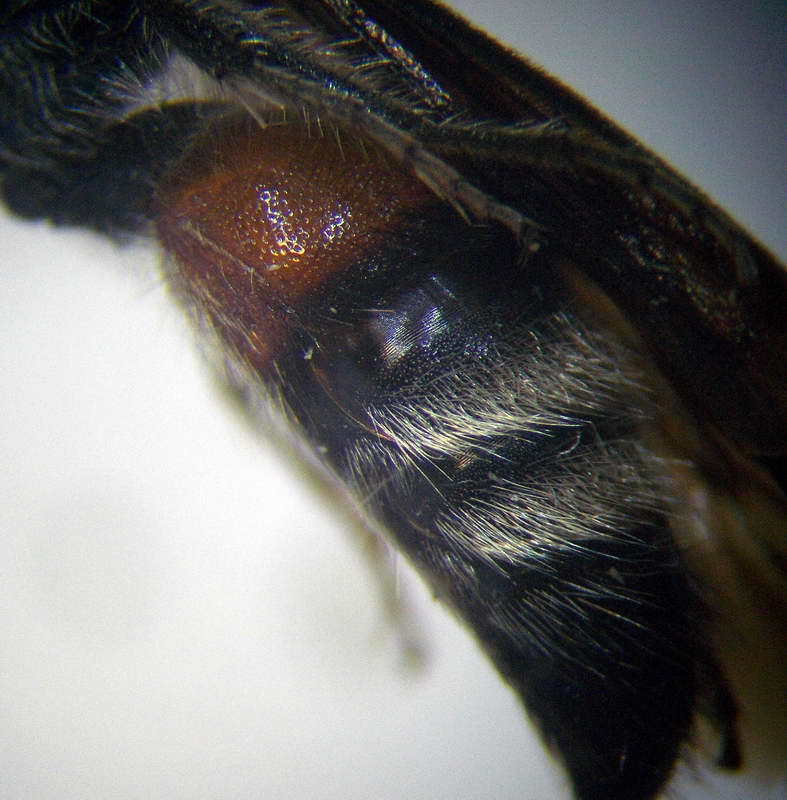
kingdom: Animalia
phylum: Arthropoda
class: Insecta
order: Hymenoptera
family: Mutillidae
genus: Nemka
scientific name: Nemka viduata
